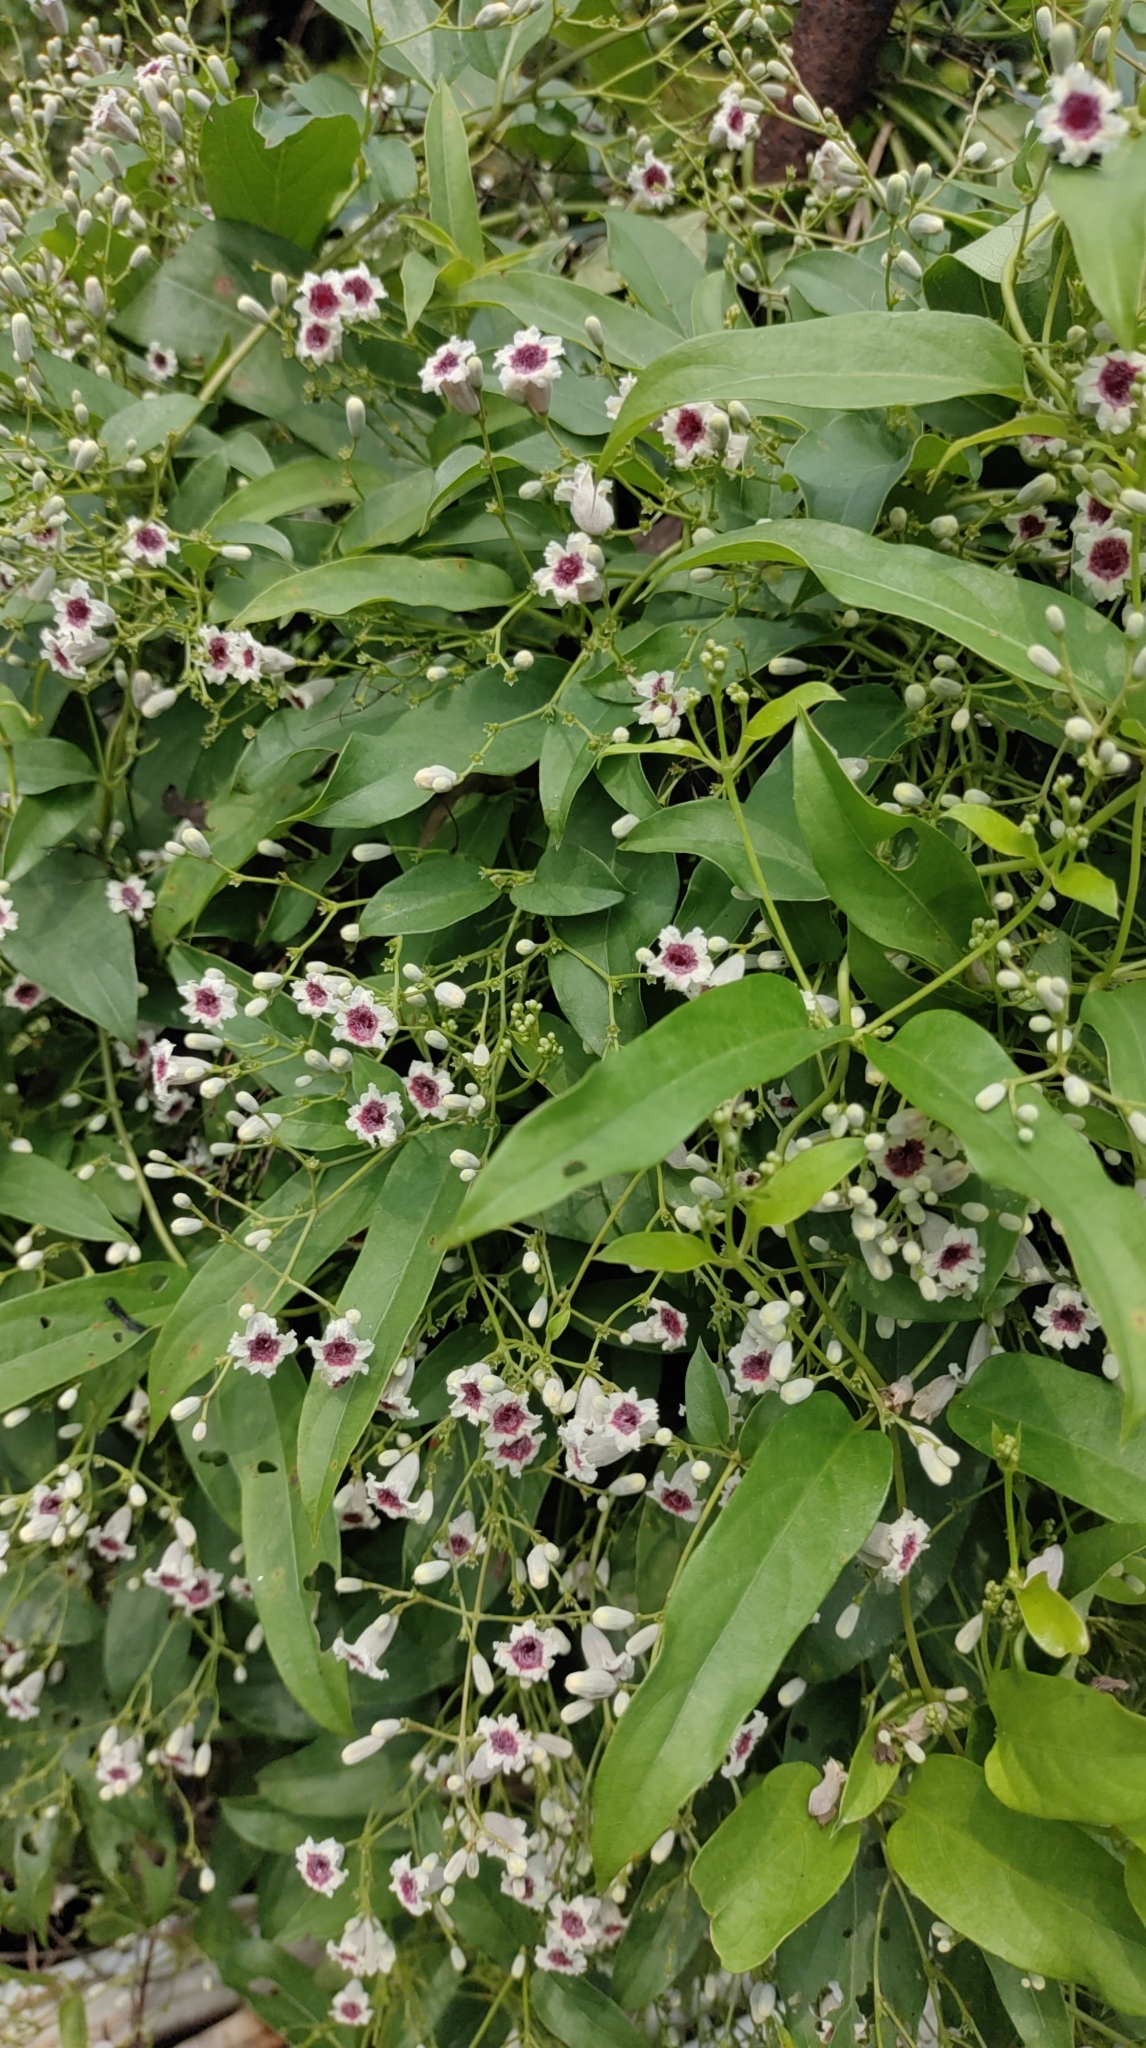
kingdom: Plantae
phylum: Tracheophyta
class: Magnoliopsida
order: Gentianales
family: Rubiaceae
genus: Paederia
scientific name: Paederia foetida
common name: Stinkvine
